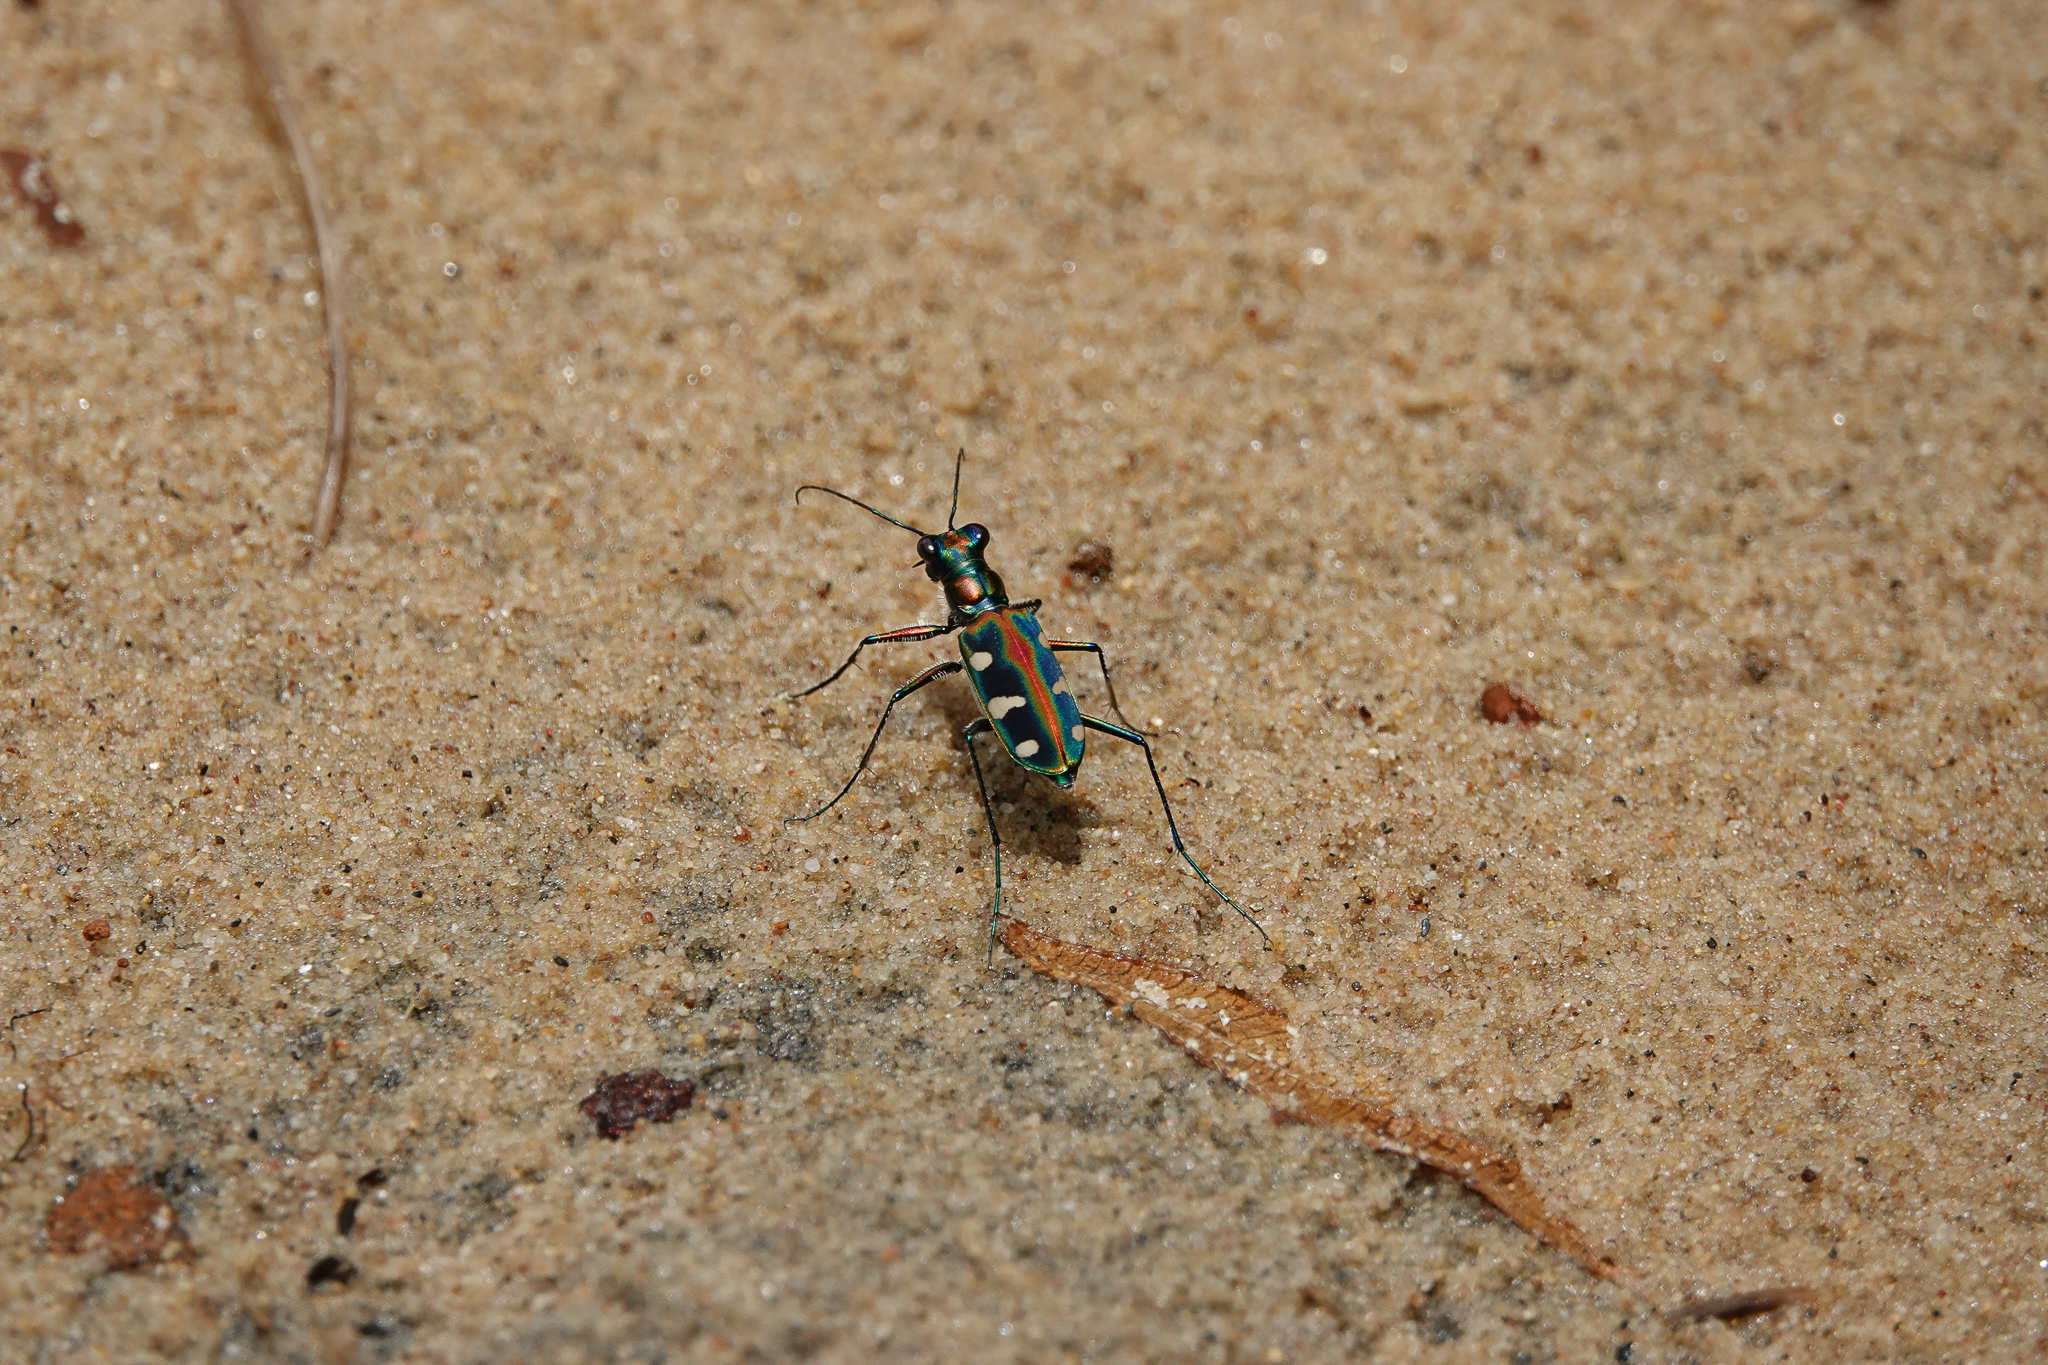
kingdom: Animalia
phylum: Arthropoda
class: Insecta
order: Coleoptera
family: Carabidae
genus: Cicindela
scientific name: Cicindela barmanica
